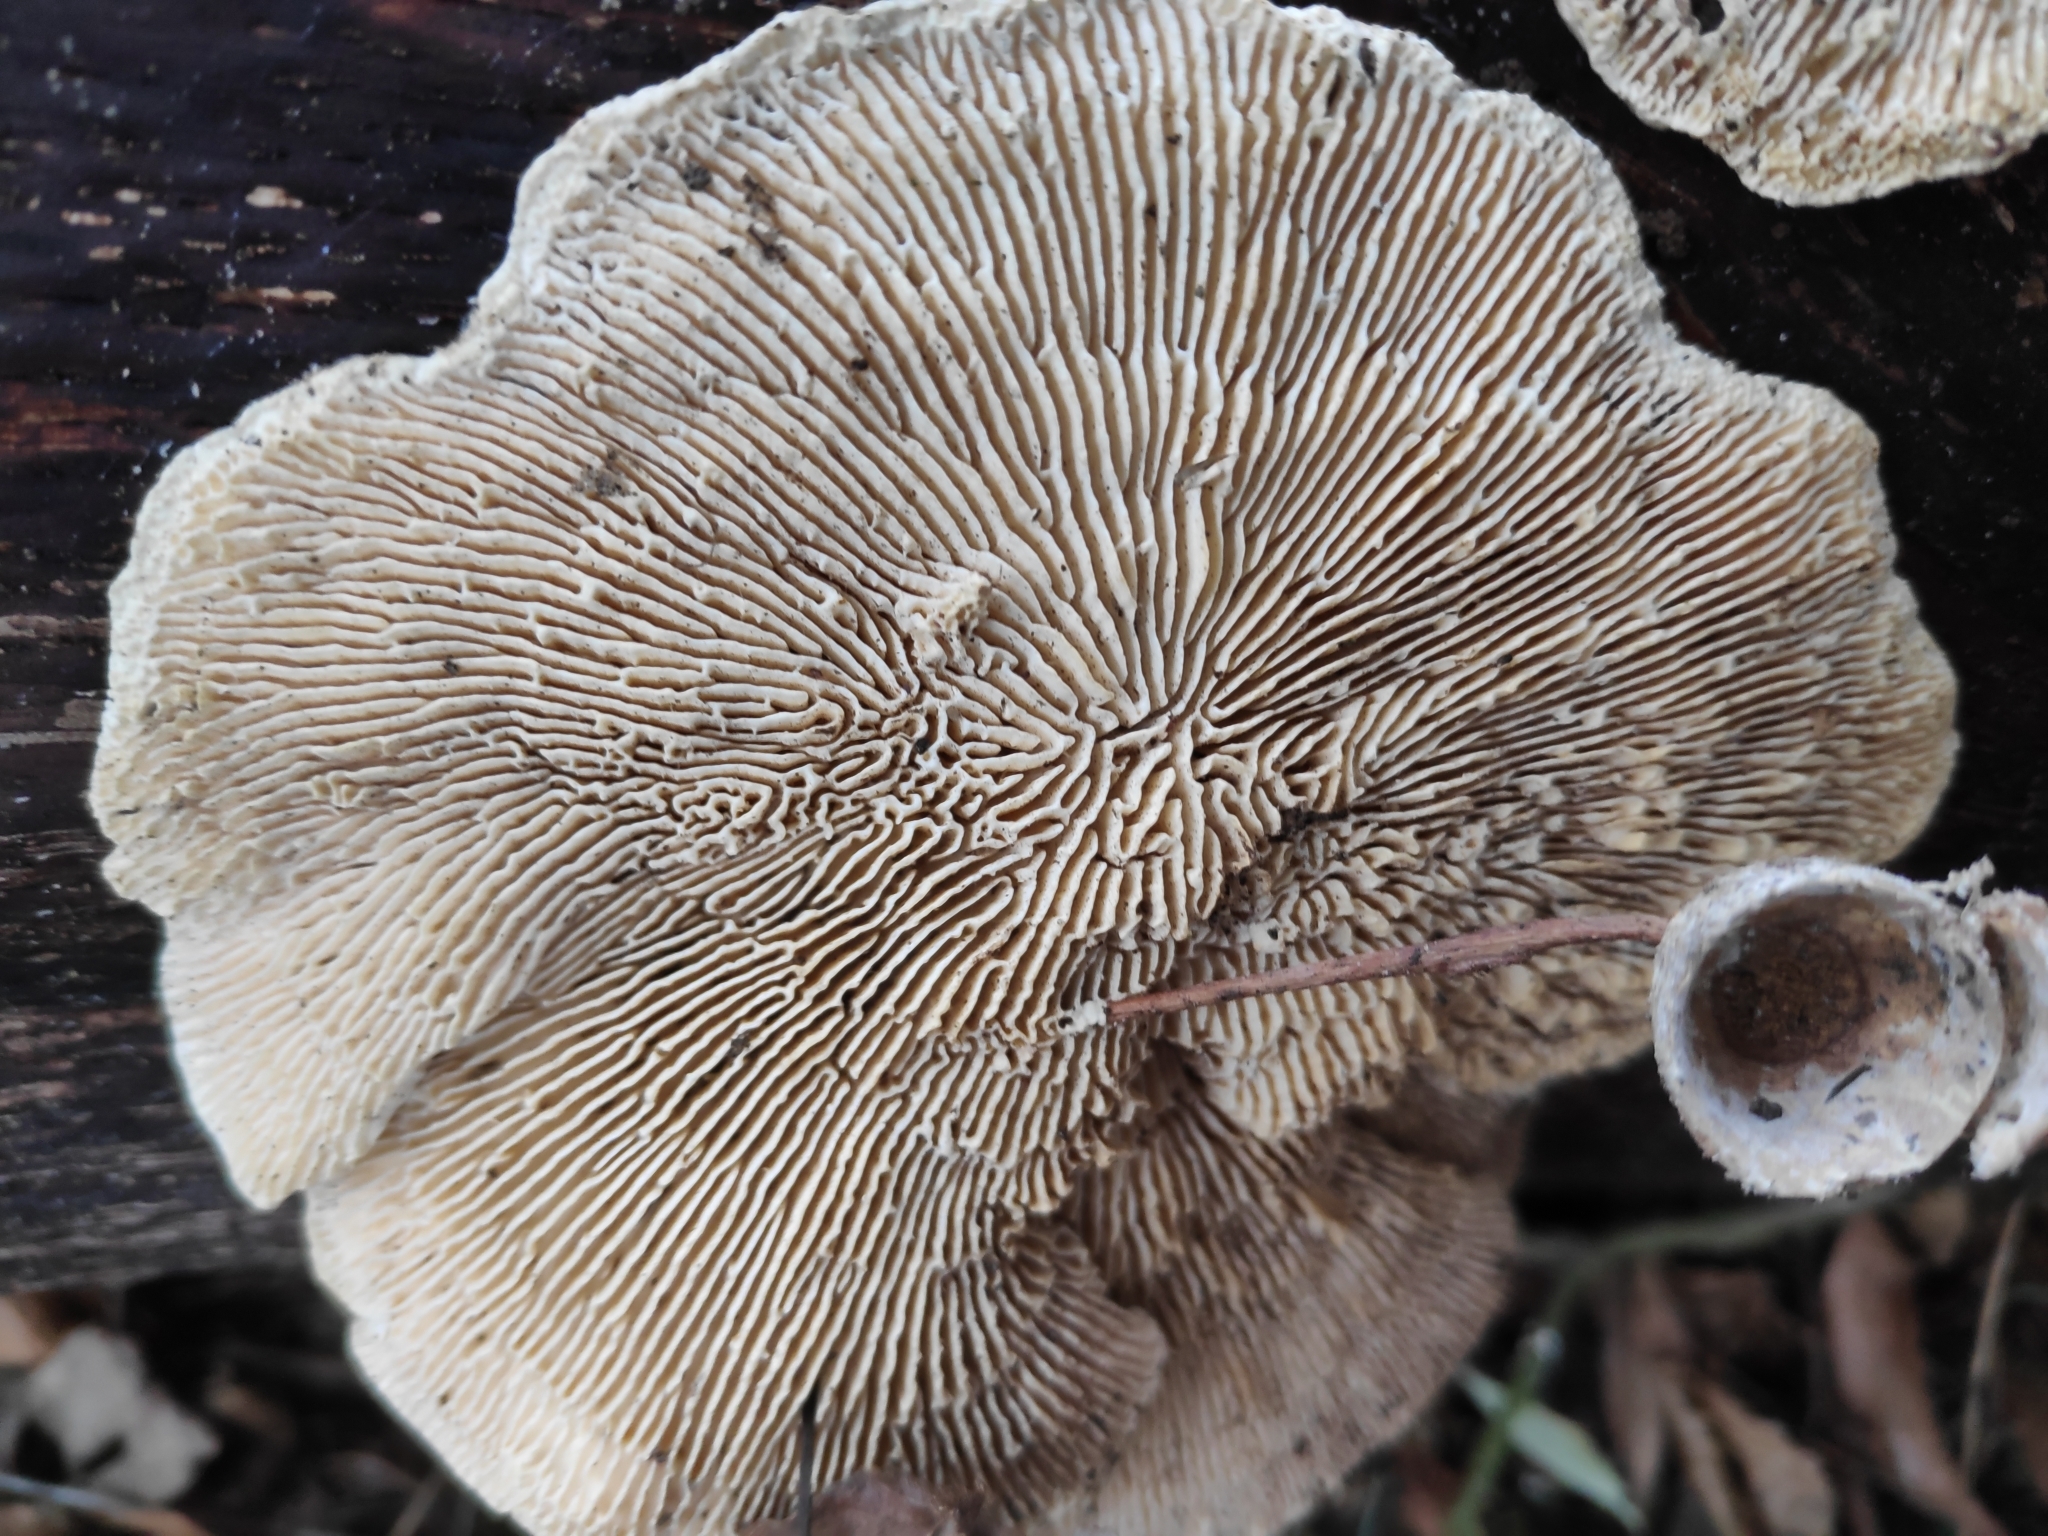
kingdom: Fungi
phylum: Basidiomycota
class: Agaricomycetes
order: Polyporales
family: Polyporaceae
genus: Lenzites
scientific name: Lenzites betulinus
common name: Birch mazegill
